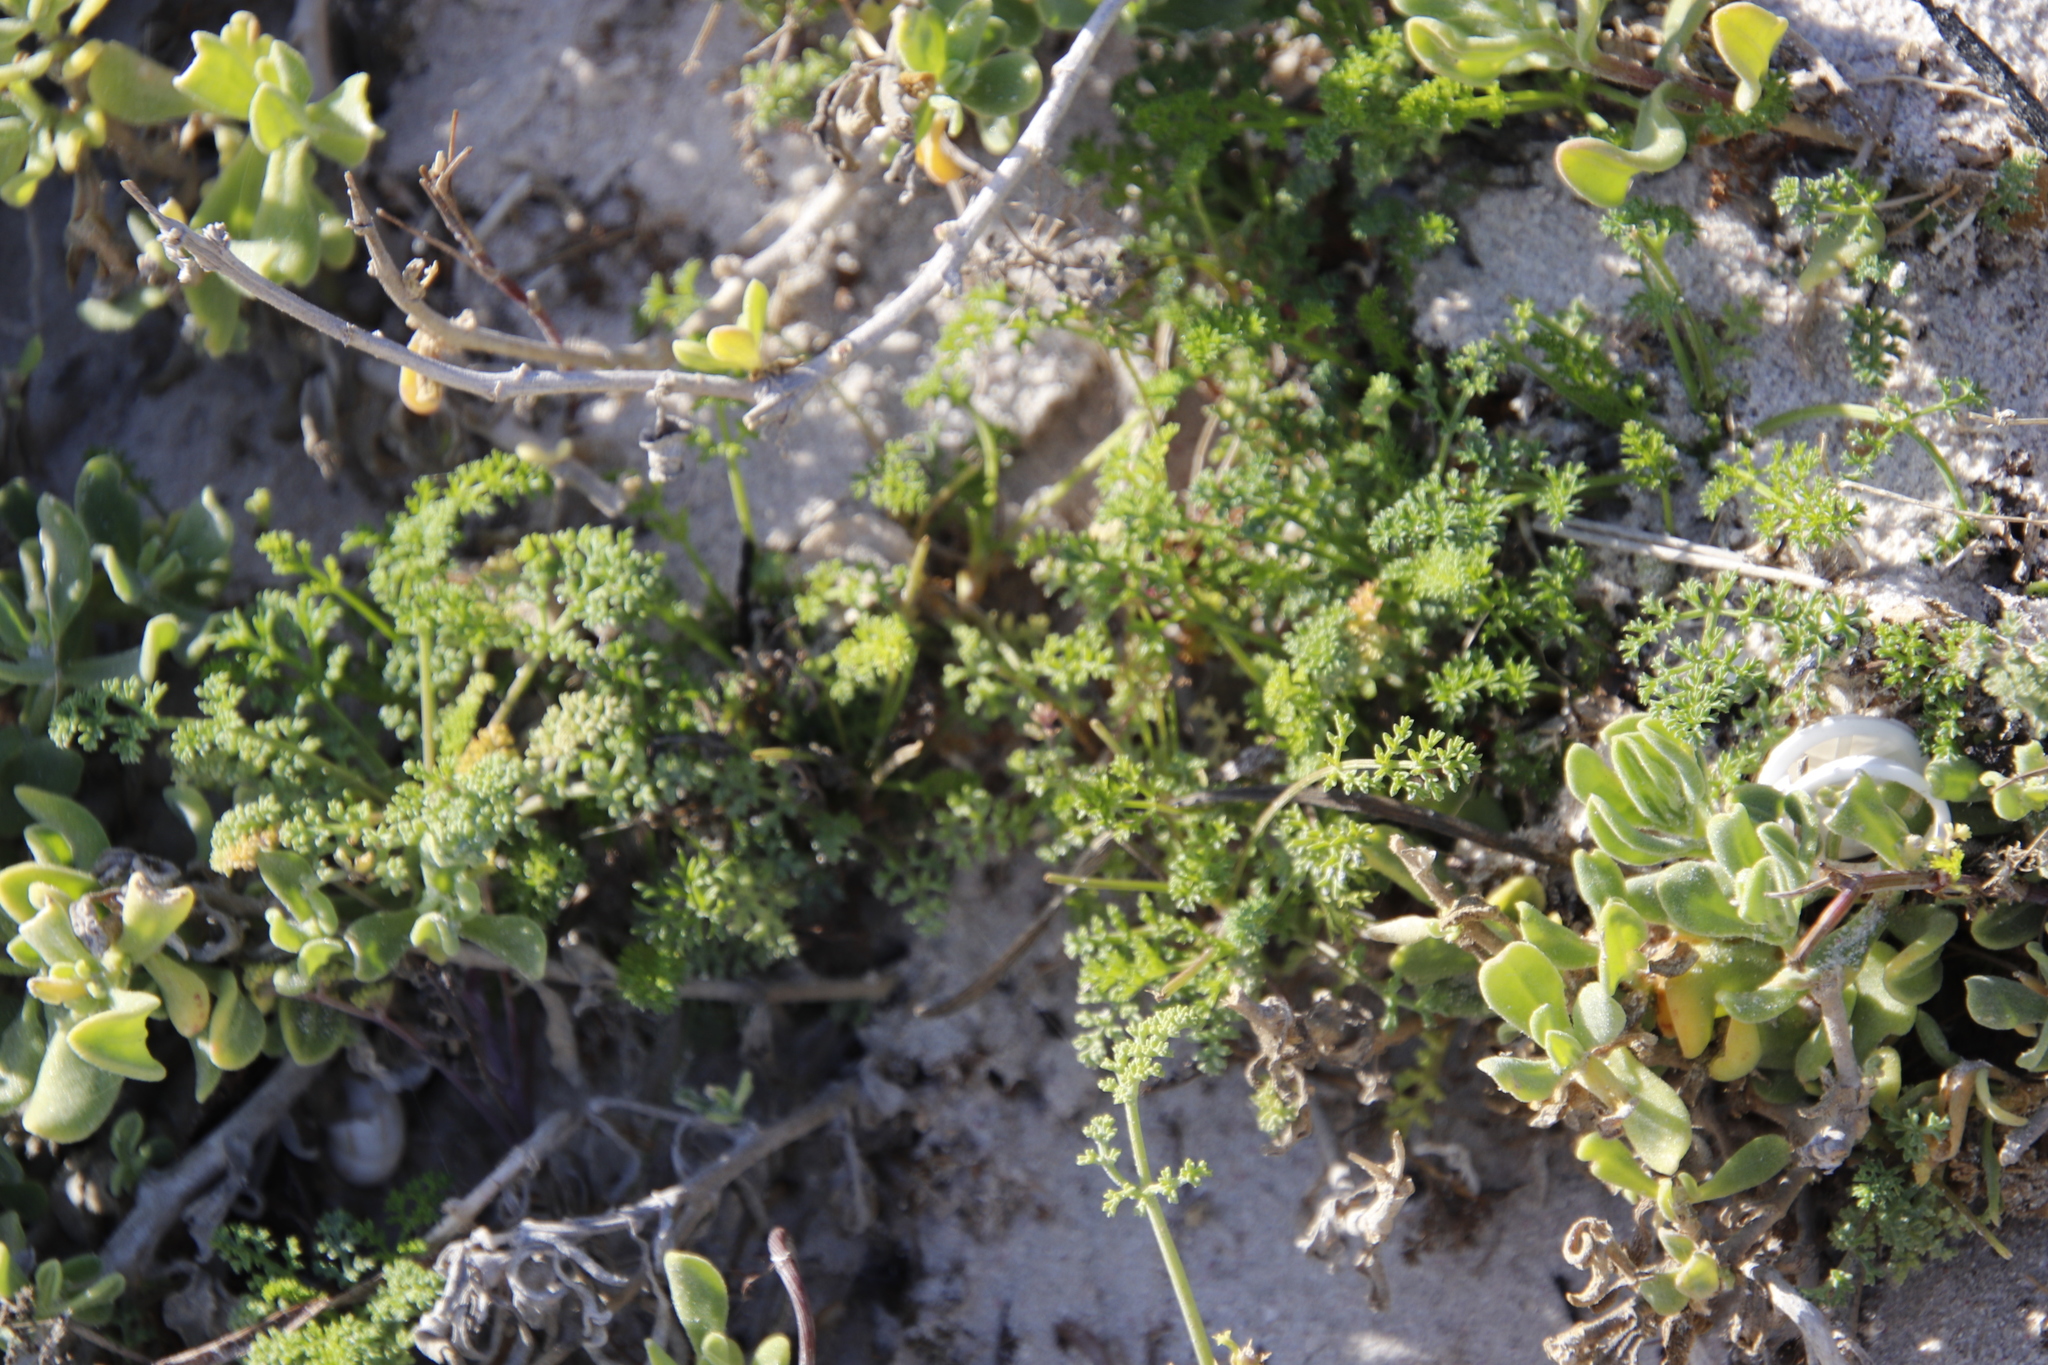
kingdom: Plantae
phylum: Tracheophyta
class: Magnoliopsida
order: Apiales
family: Apiaceae
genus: Dasispermum
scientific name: Dasispermum suffruticosum
